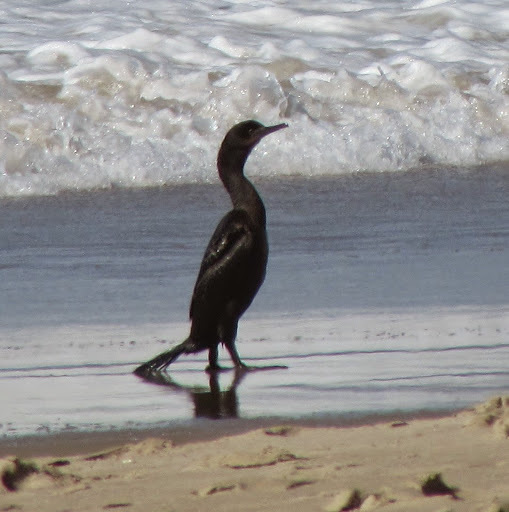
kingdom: Animalia
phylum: Chordata
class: Aves
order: Suliformes
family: Phalacrocoracidae
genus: Urile
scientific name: Urile penicillatus
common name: Brandt's cormorant
